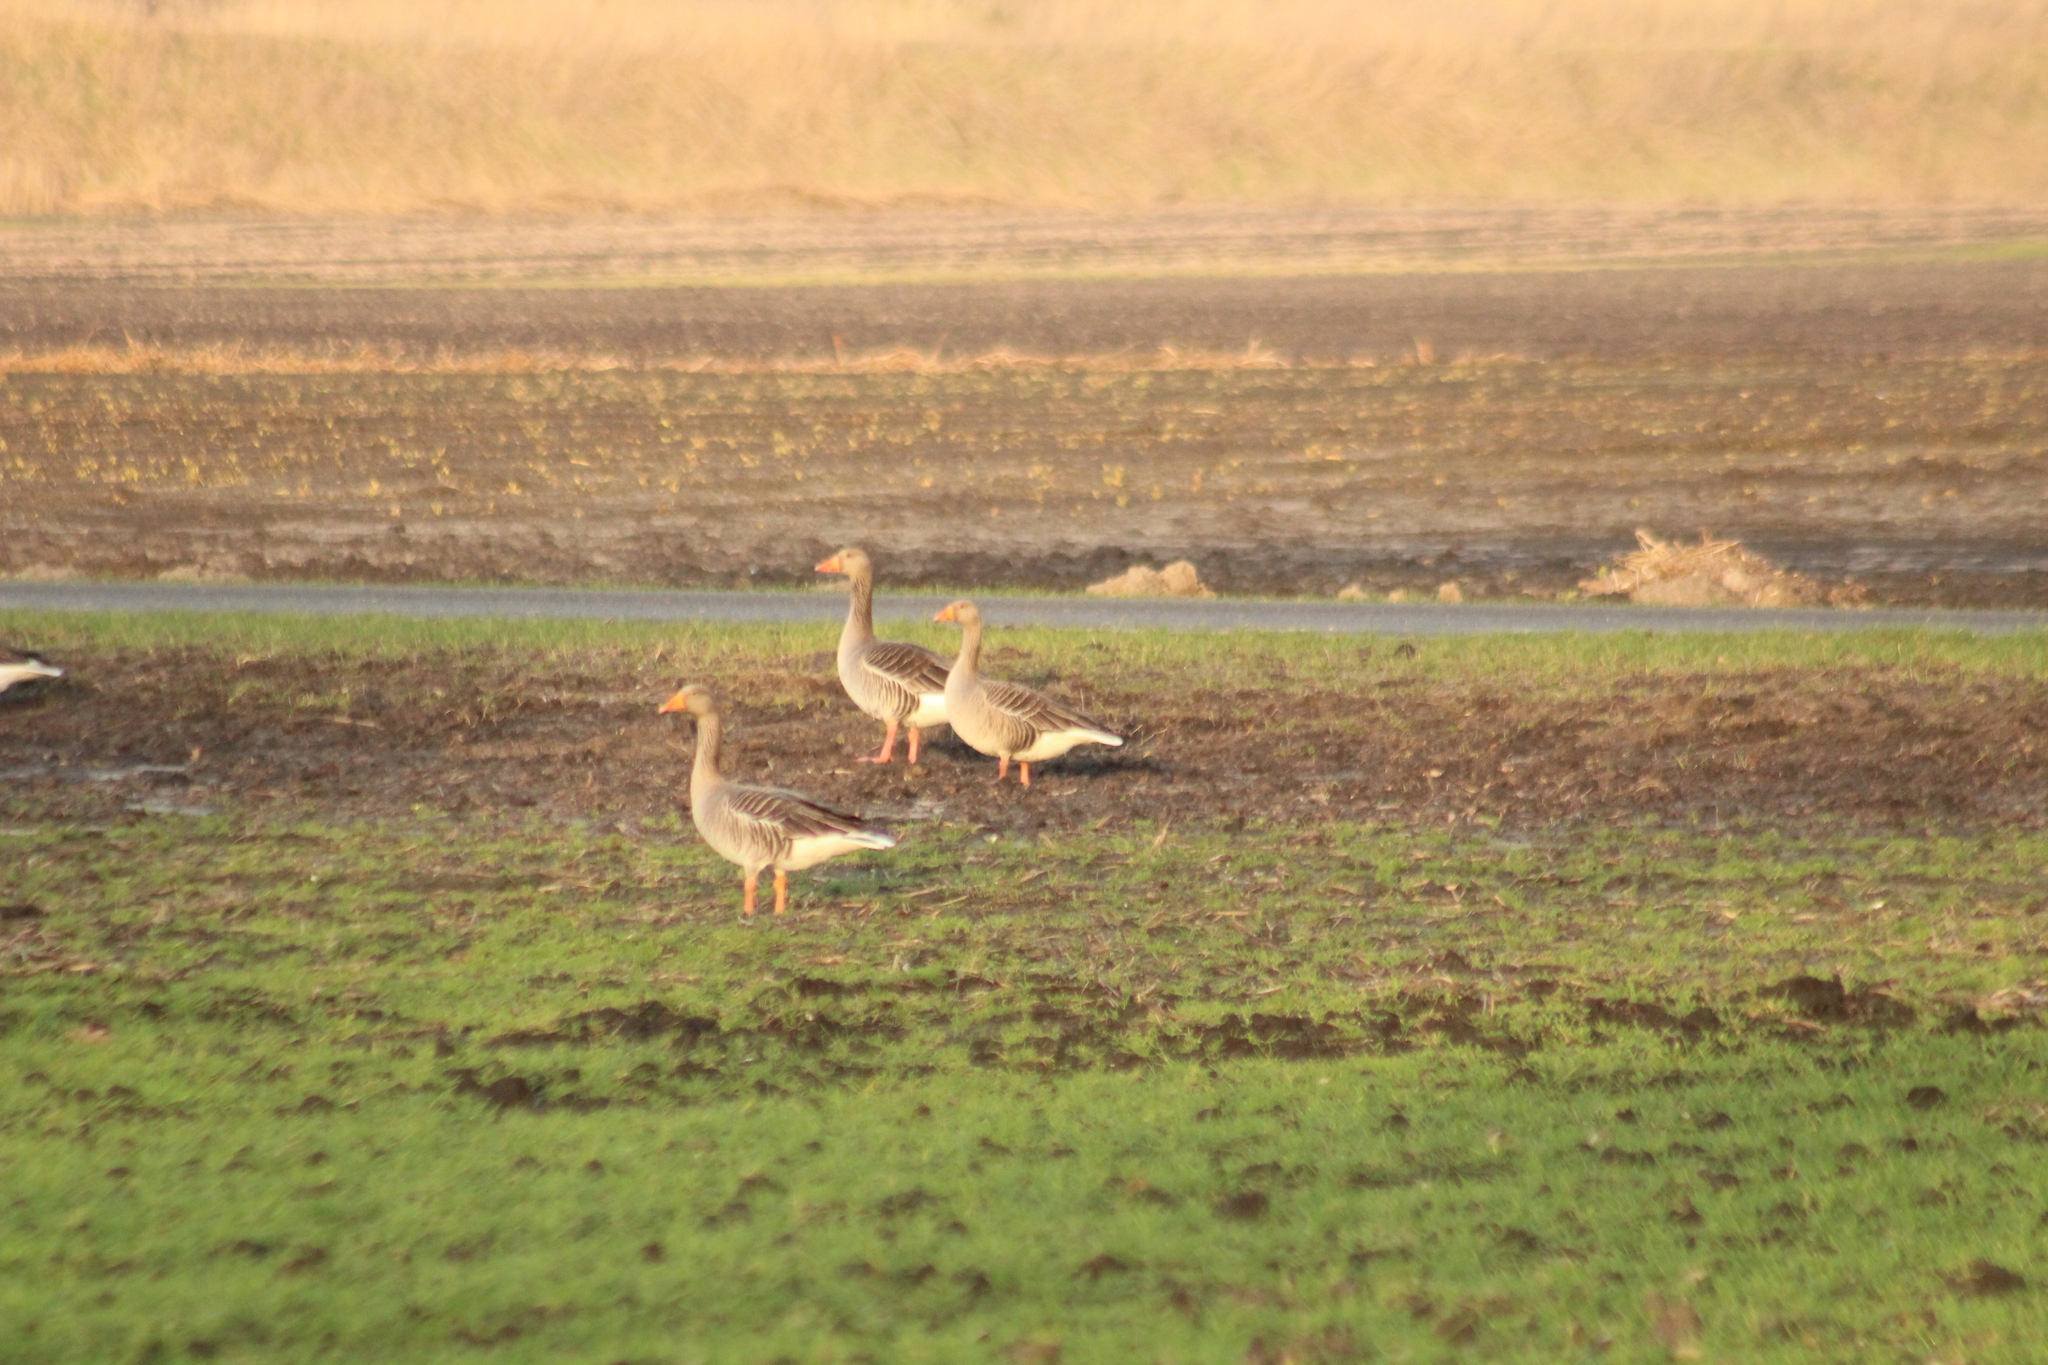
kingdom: Animalia
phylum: Chordata
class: Aves
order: Anseriformes
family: Anatidae
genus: Anser
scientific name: Anser anser
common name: Greylag goose
